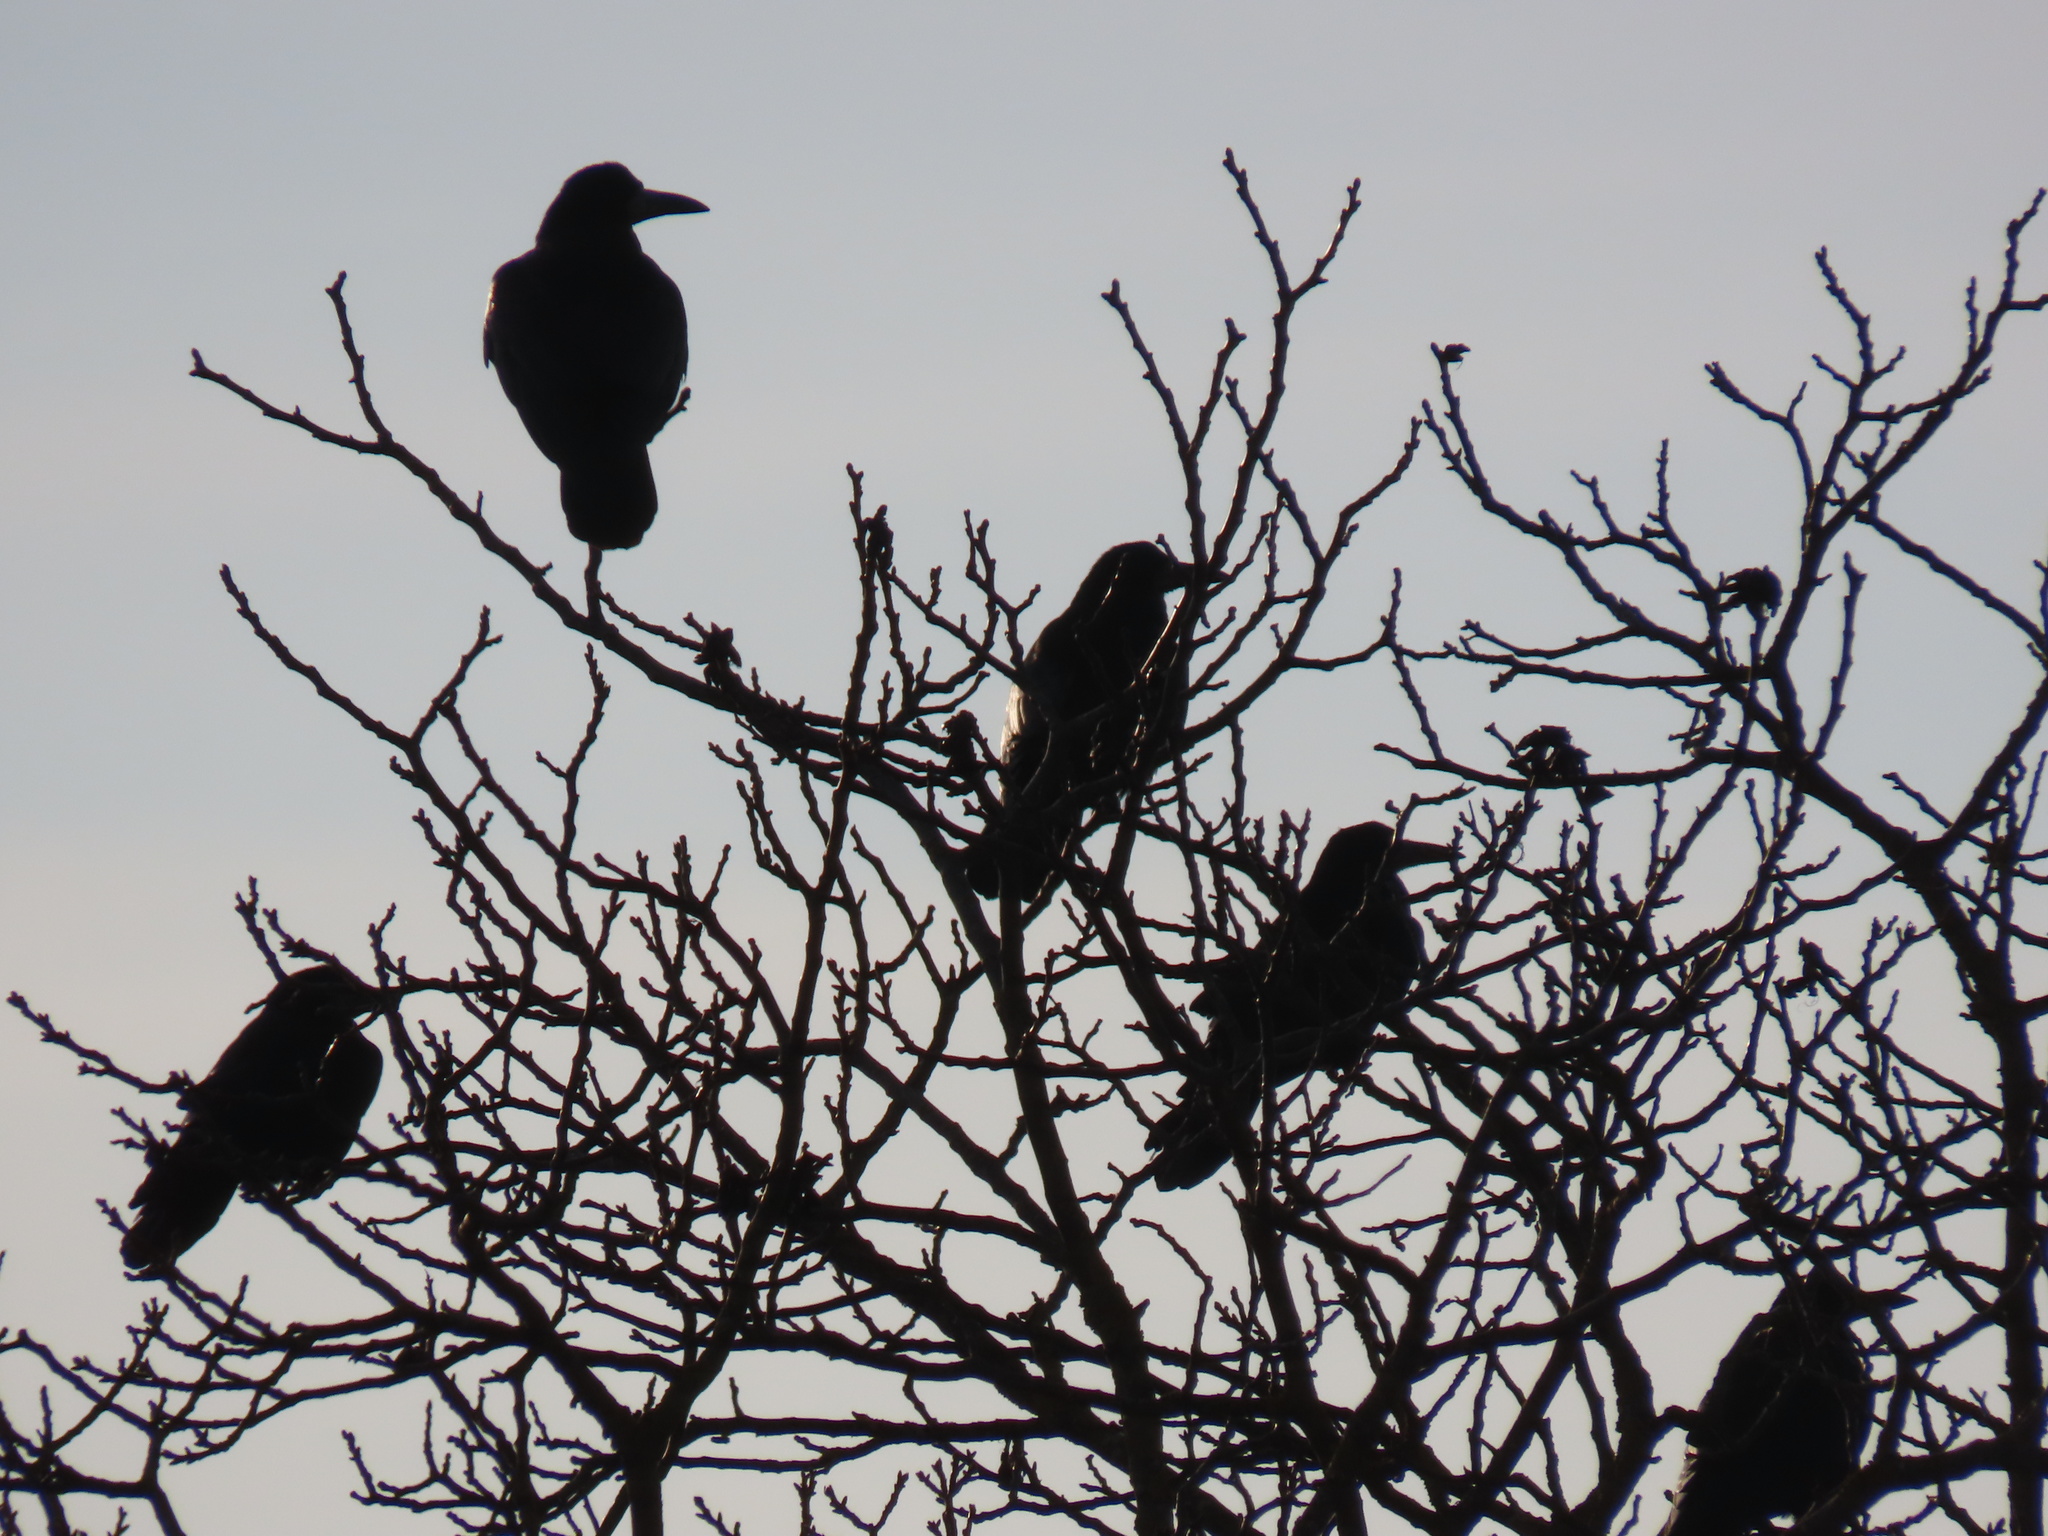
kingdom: Animalia
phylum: Chordata
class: Aves
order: Passeriformes
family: Corvidae
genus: Corvus
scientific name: Corvus frugilegus
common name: Rook
